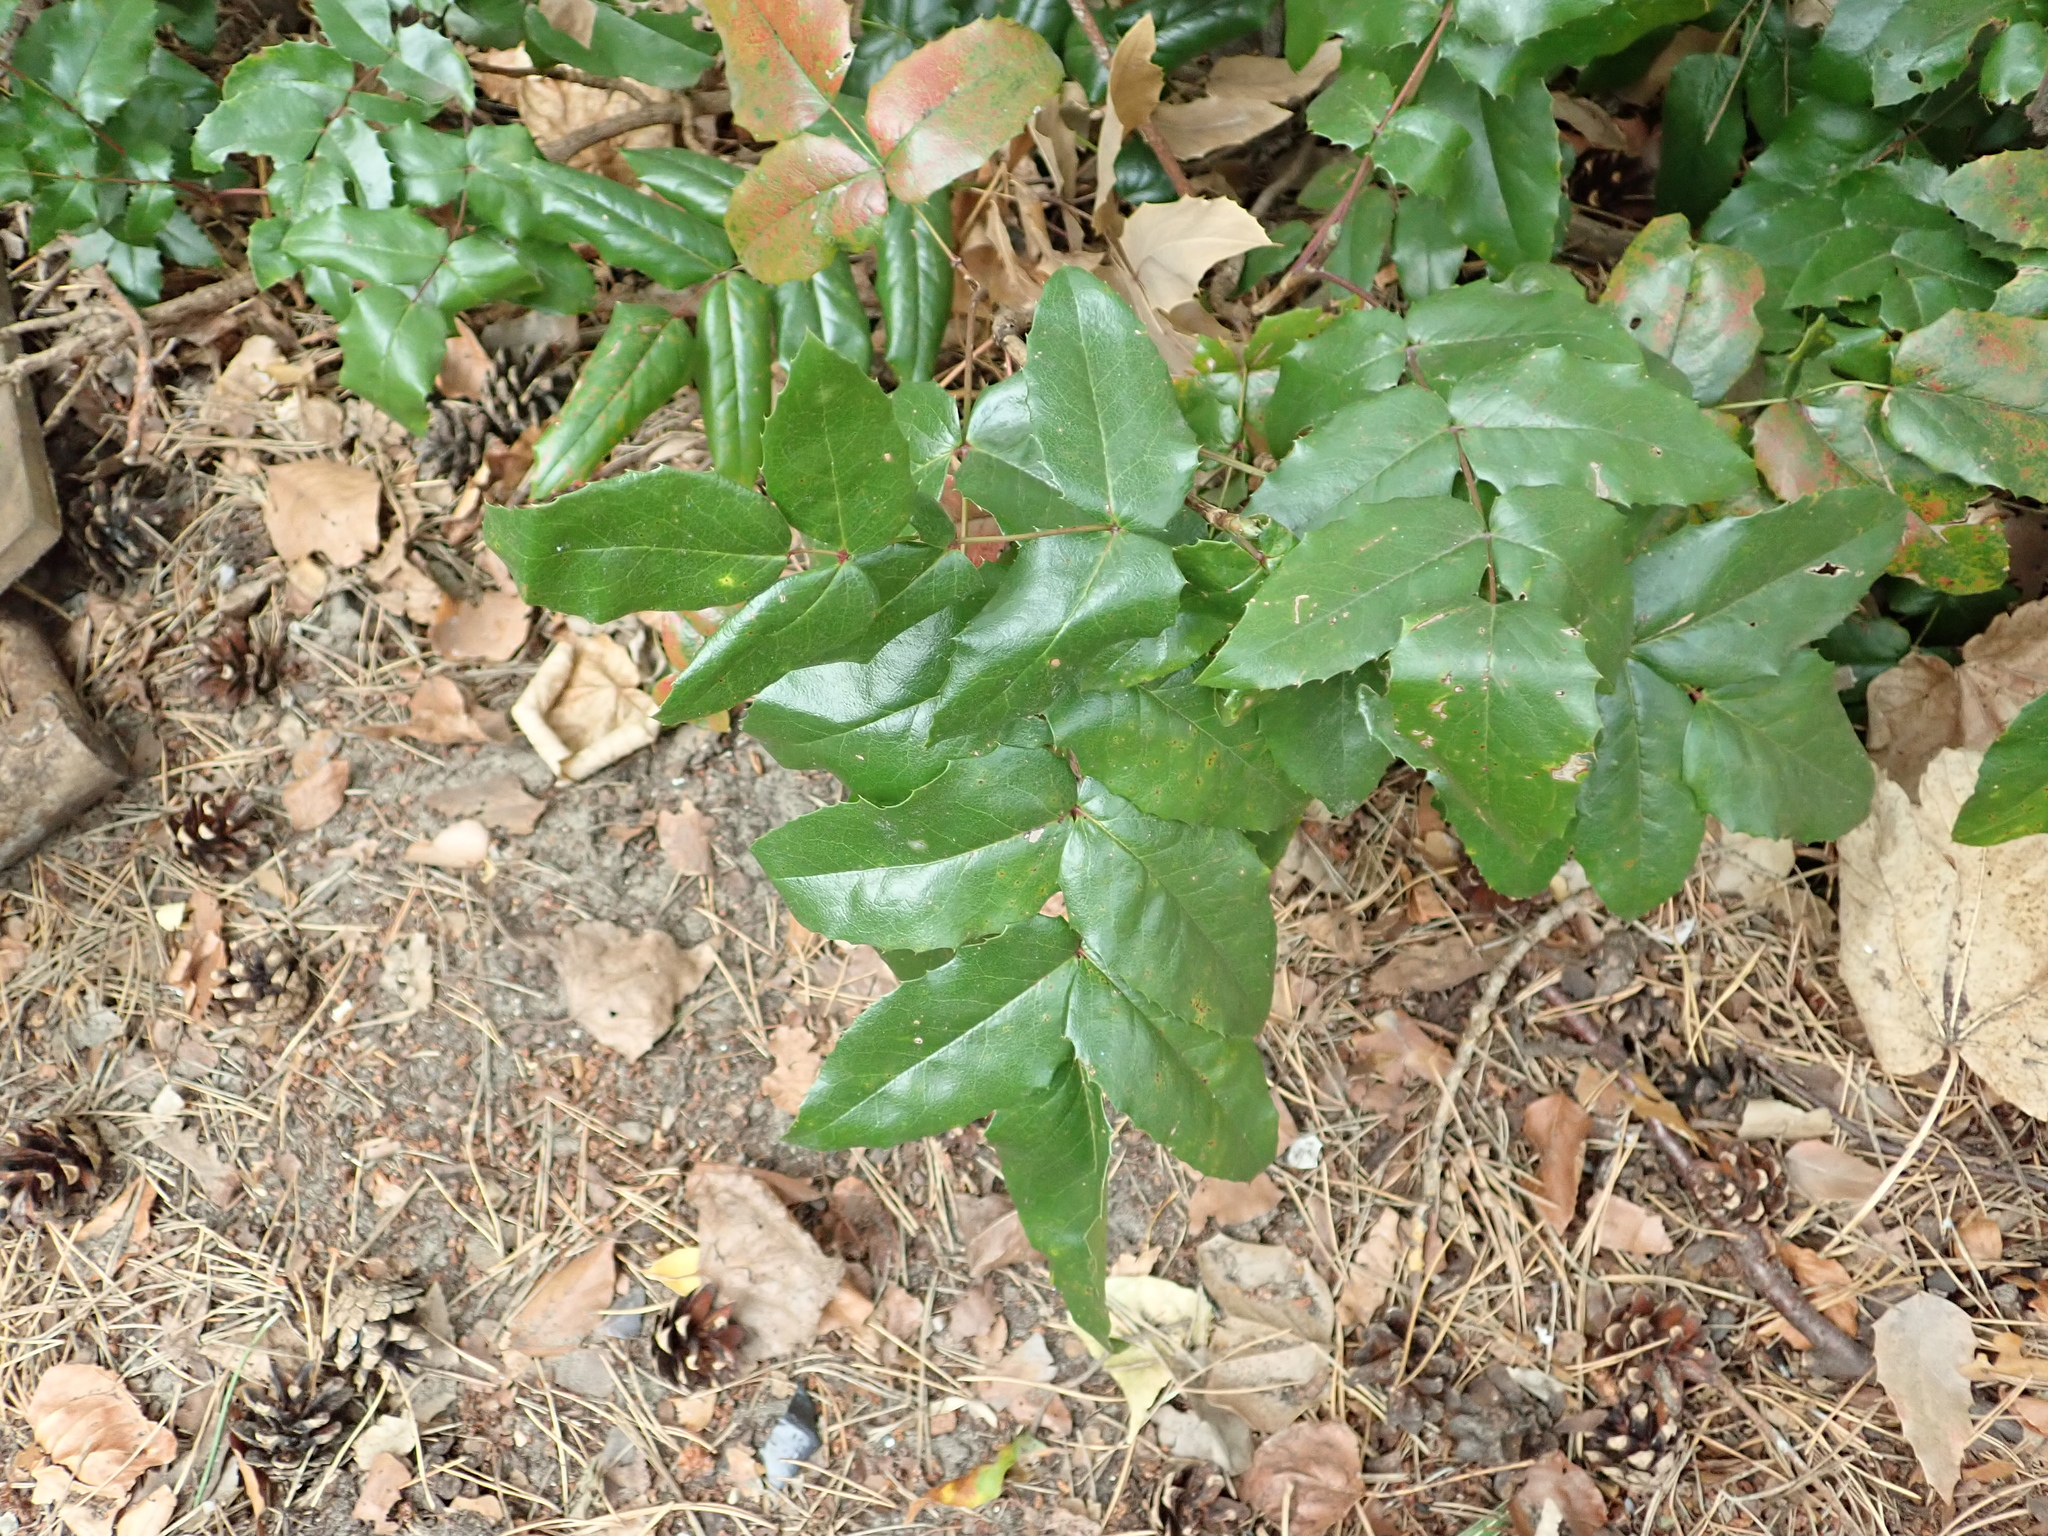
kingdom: Plantae
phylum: Tracheophyta
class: Magnoliopsida
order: Ranunculales
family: Berberidaceae
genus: Mahonia
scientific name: Mahonia aquifolium
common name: Oregon-grape
